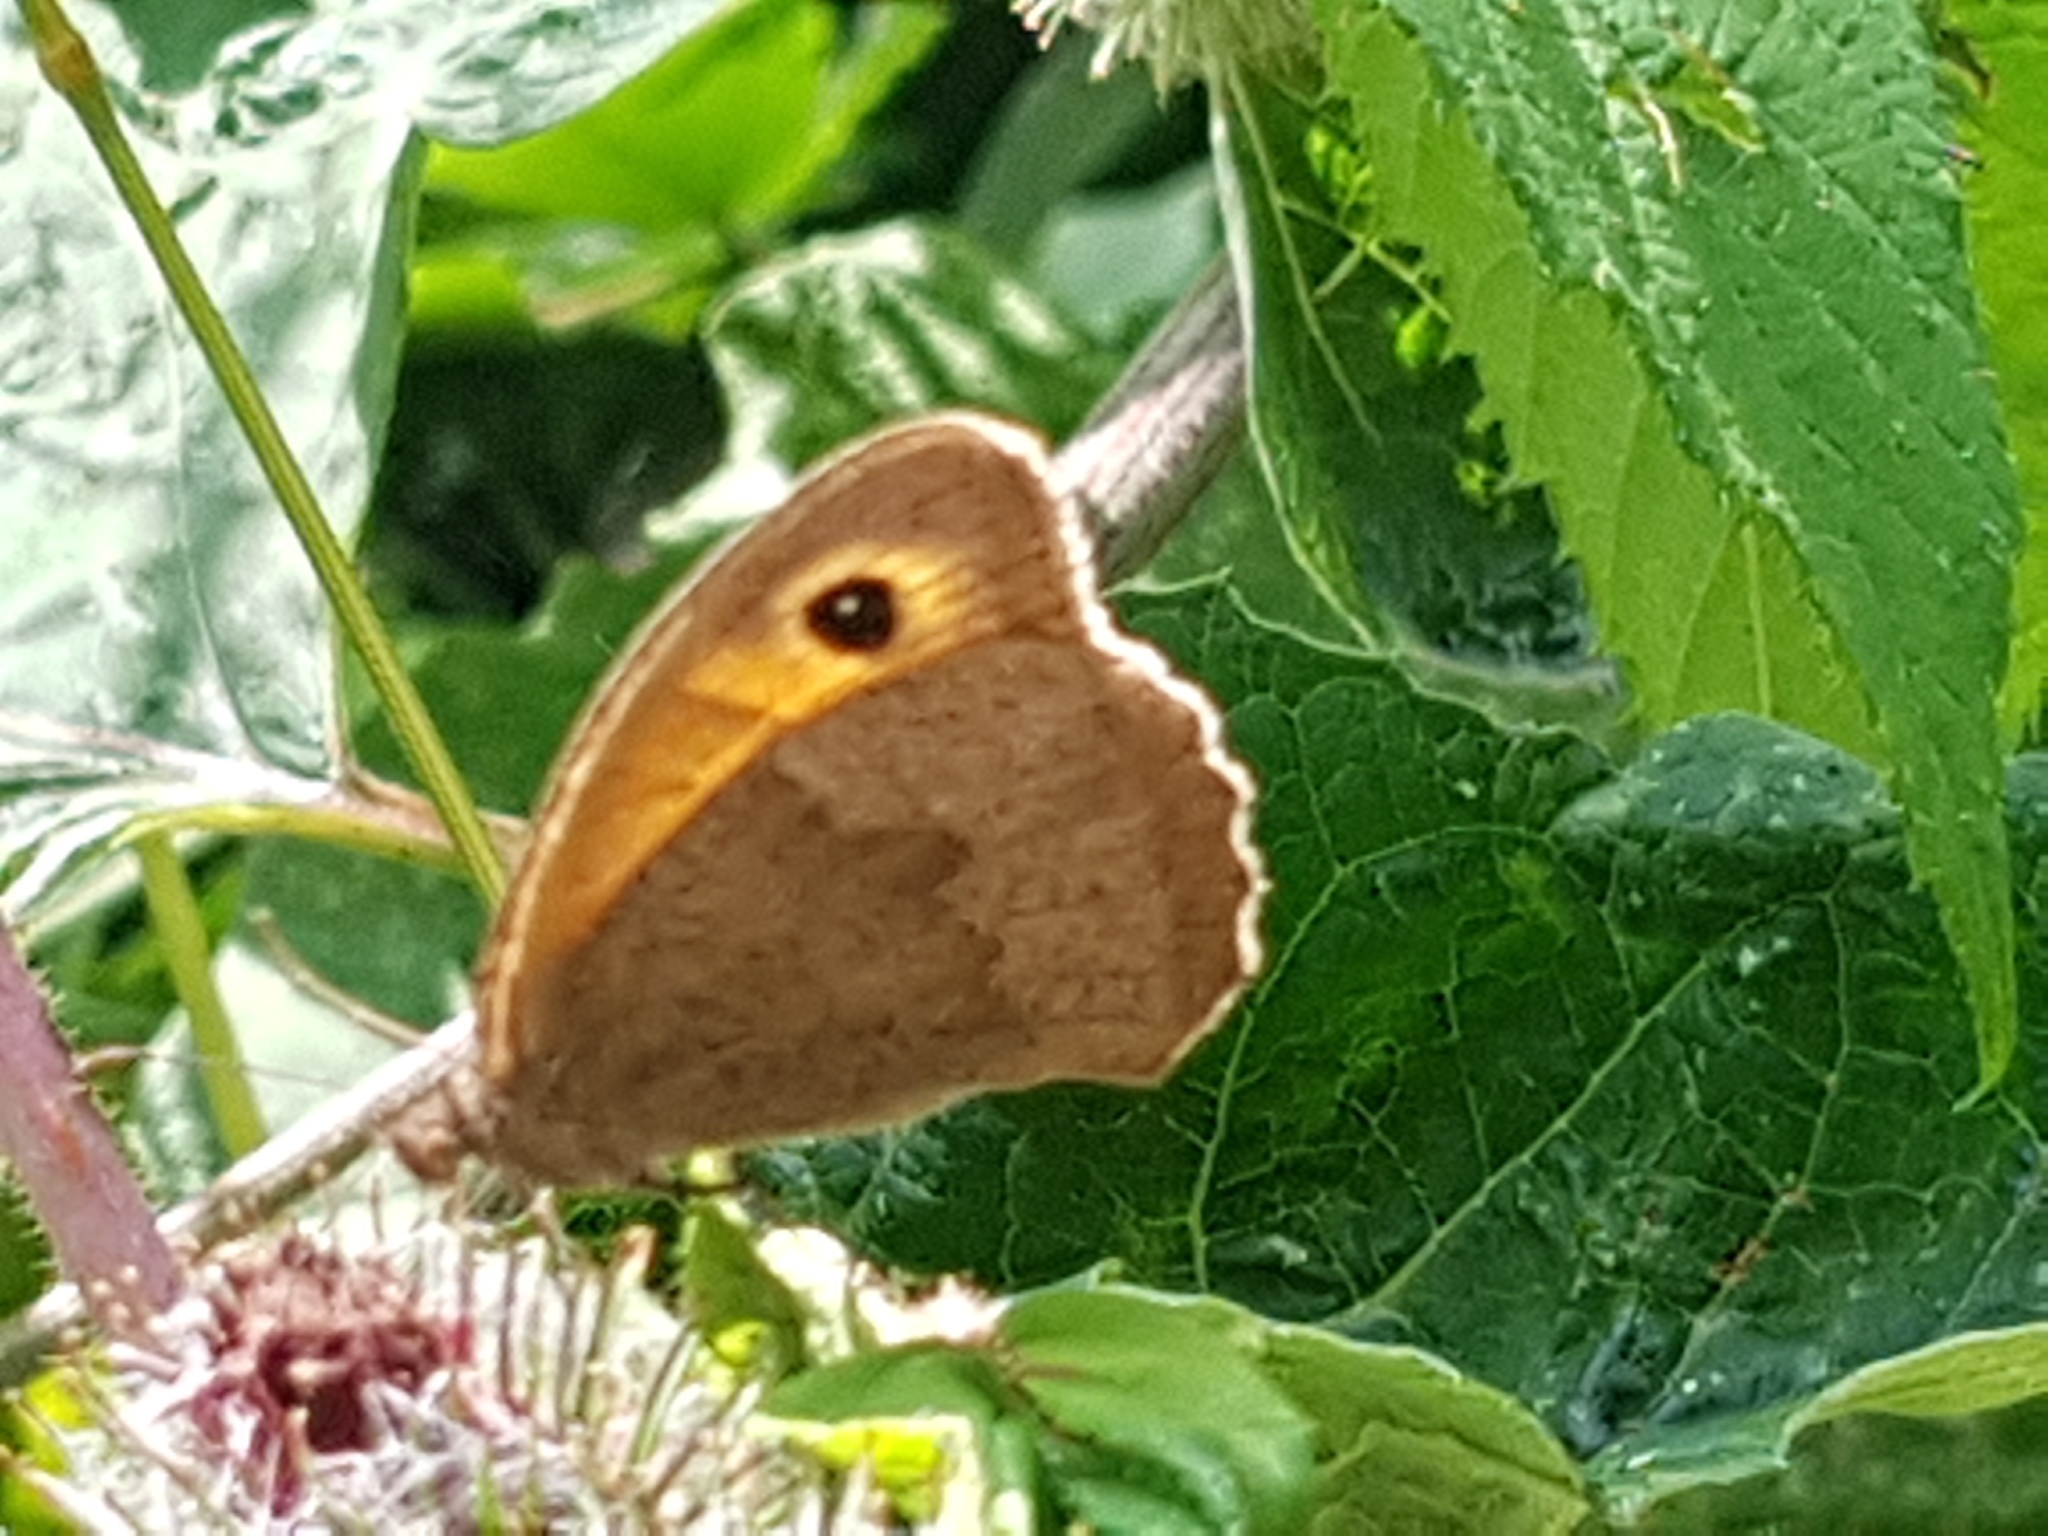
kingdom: Animalia
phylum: Arthropoda
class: Insecta
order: Lepidoptera
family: Nymphalidae
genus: Maniola
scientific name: Maniola jurtina
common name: Meadow brown
